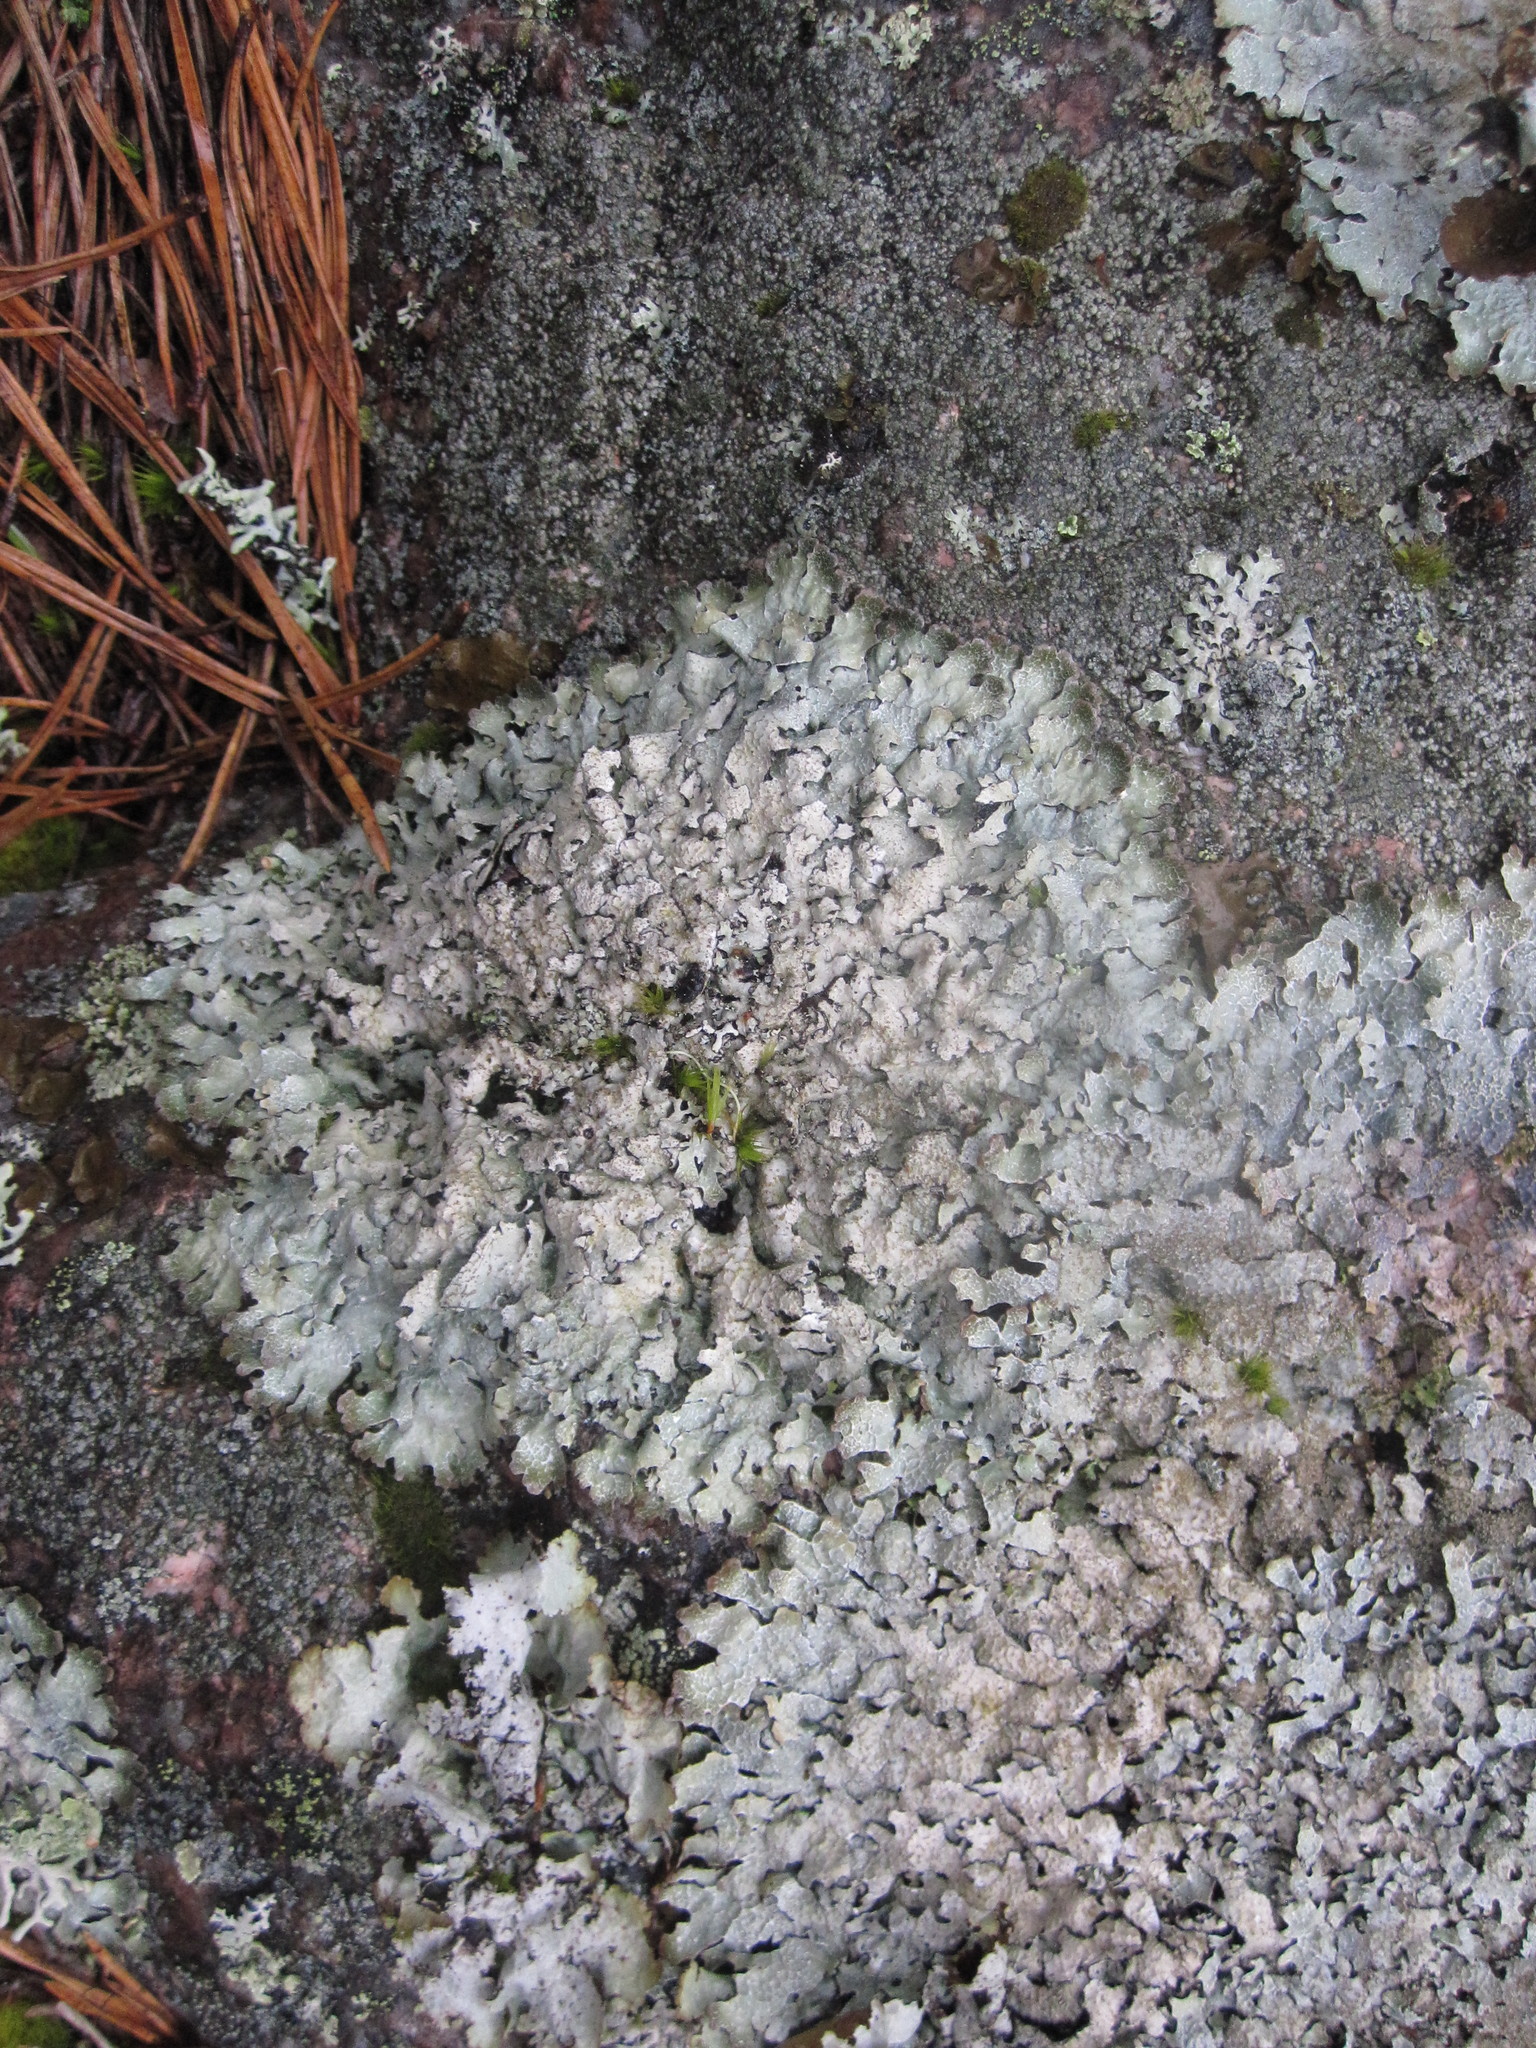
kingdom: Fungi
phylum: Ascomycota
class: Lecanoromycetes
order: Lecanorales
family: Parmeliaceae
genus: Parmelia
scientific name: Parmelia saxatilis
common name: Salted shield lichen
